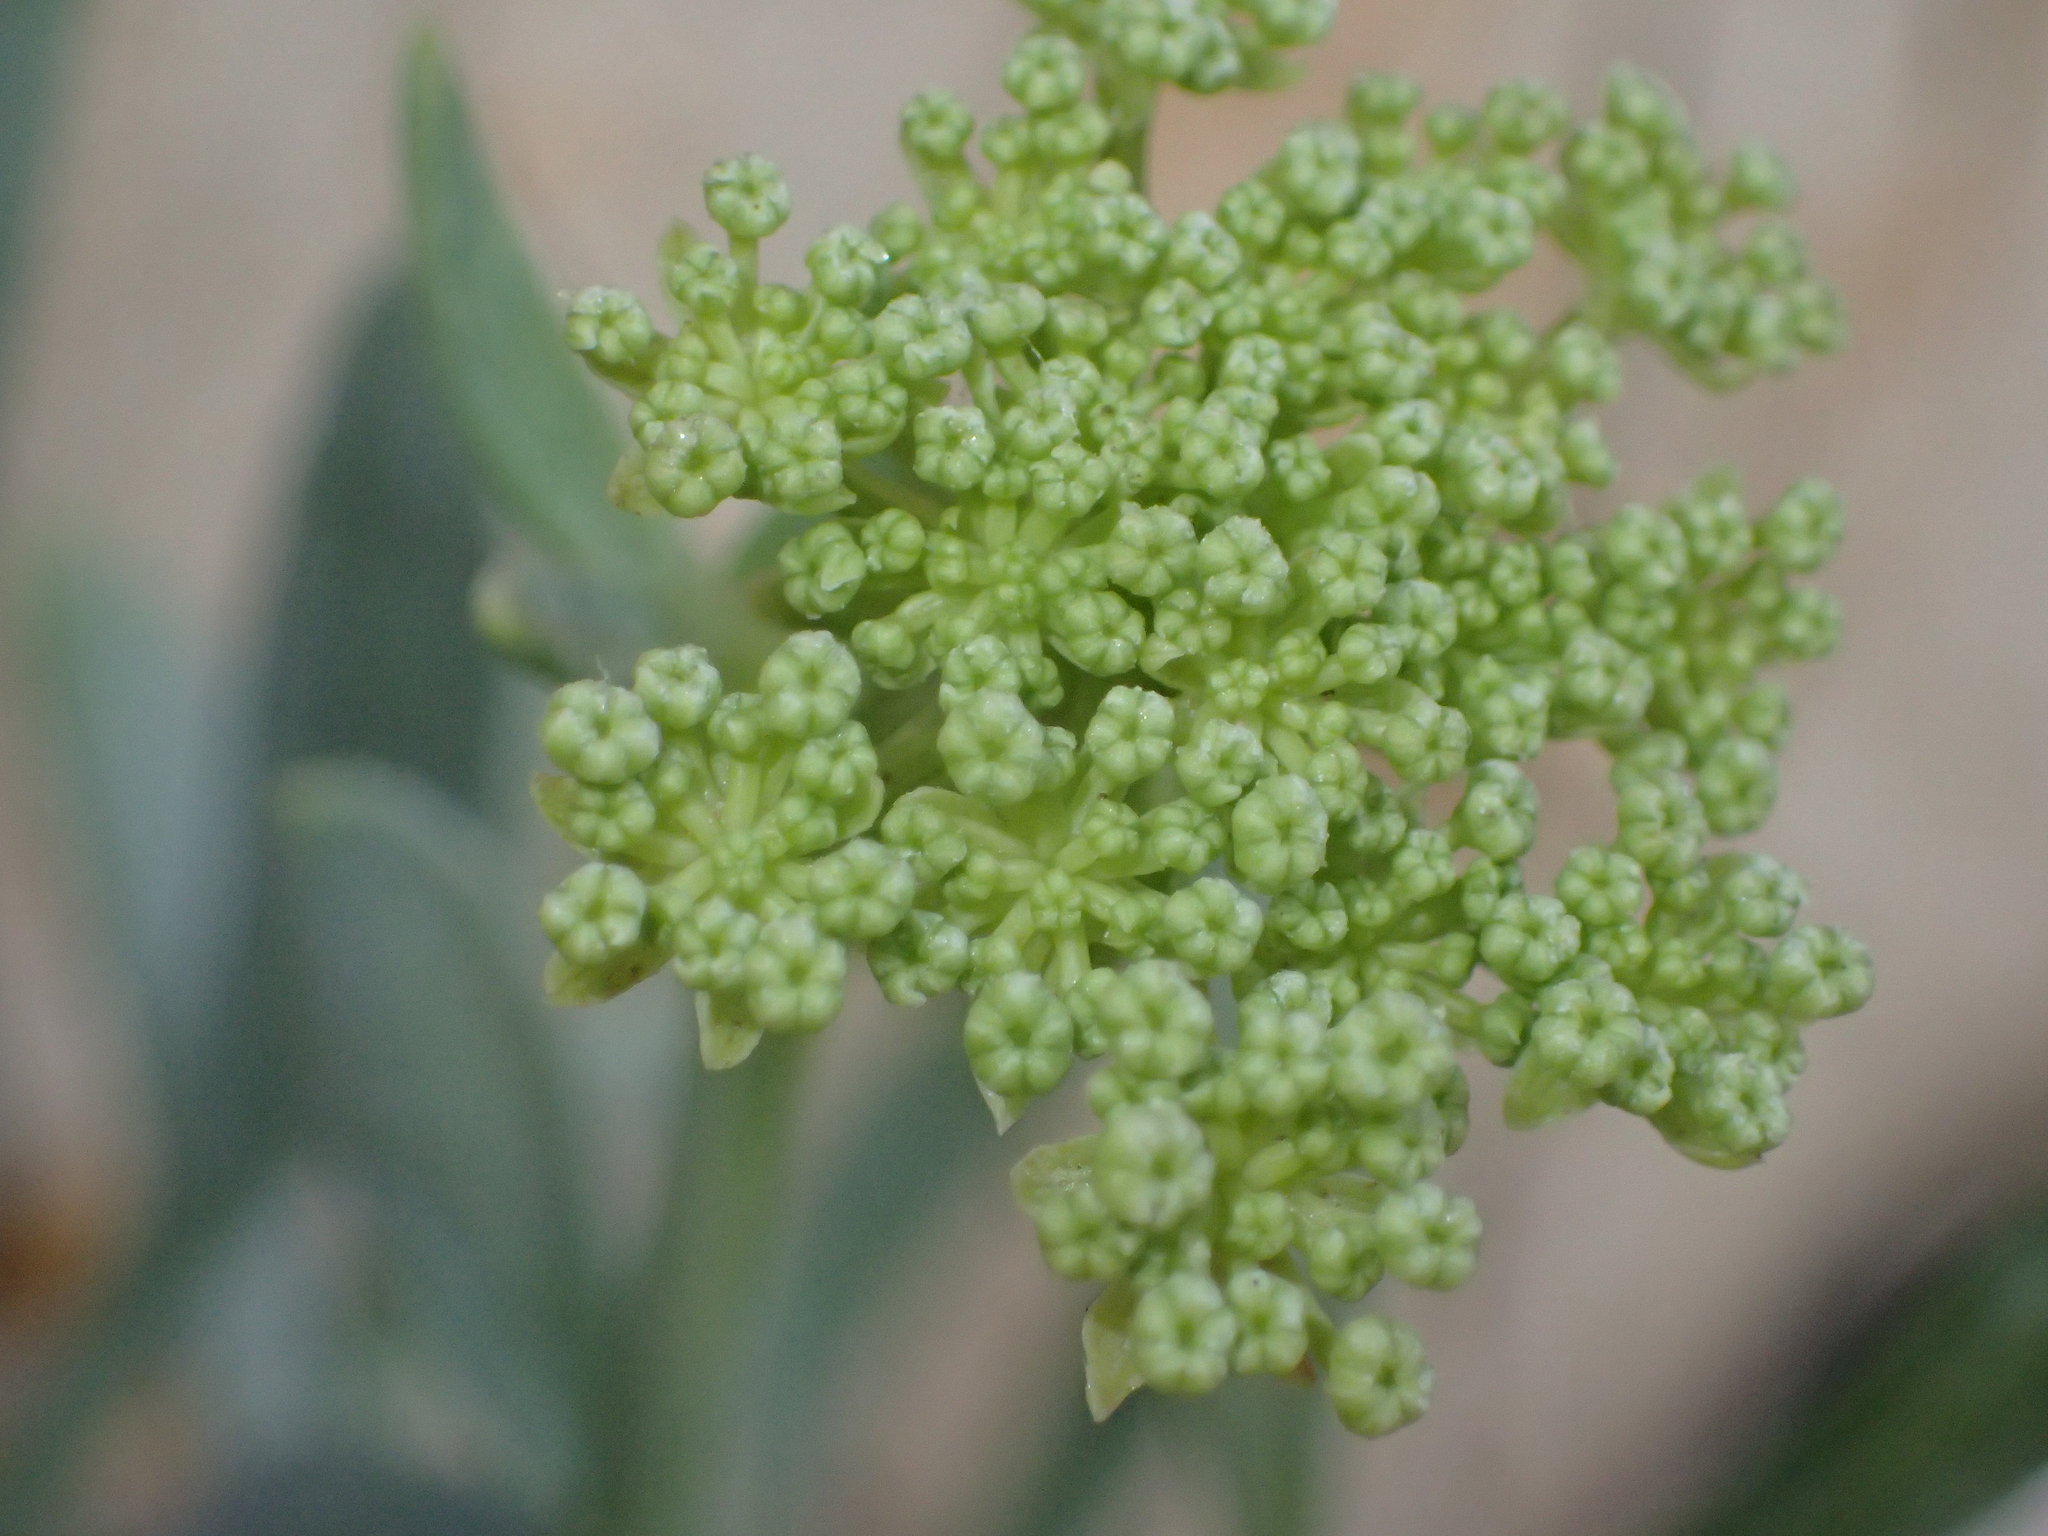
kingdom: Plantae
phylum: Tracheophyta
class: Magnoliopsida
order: Apiales
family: Apiaceae
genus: Crithmum
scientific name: Crithmum maritimum
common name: Rock samphire
